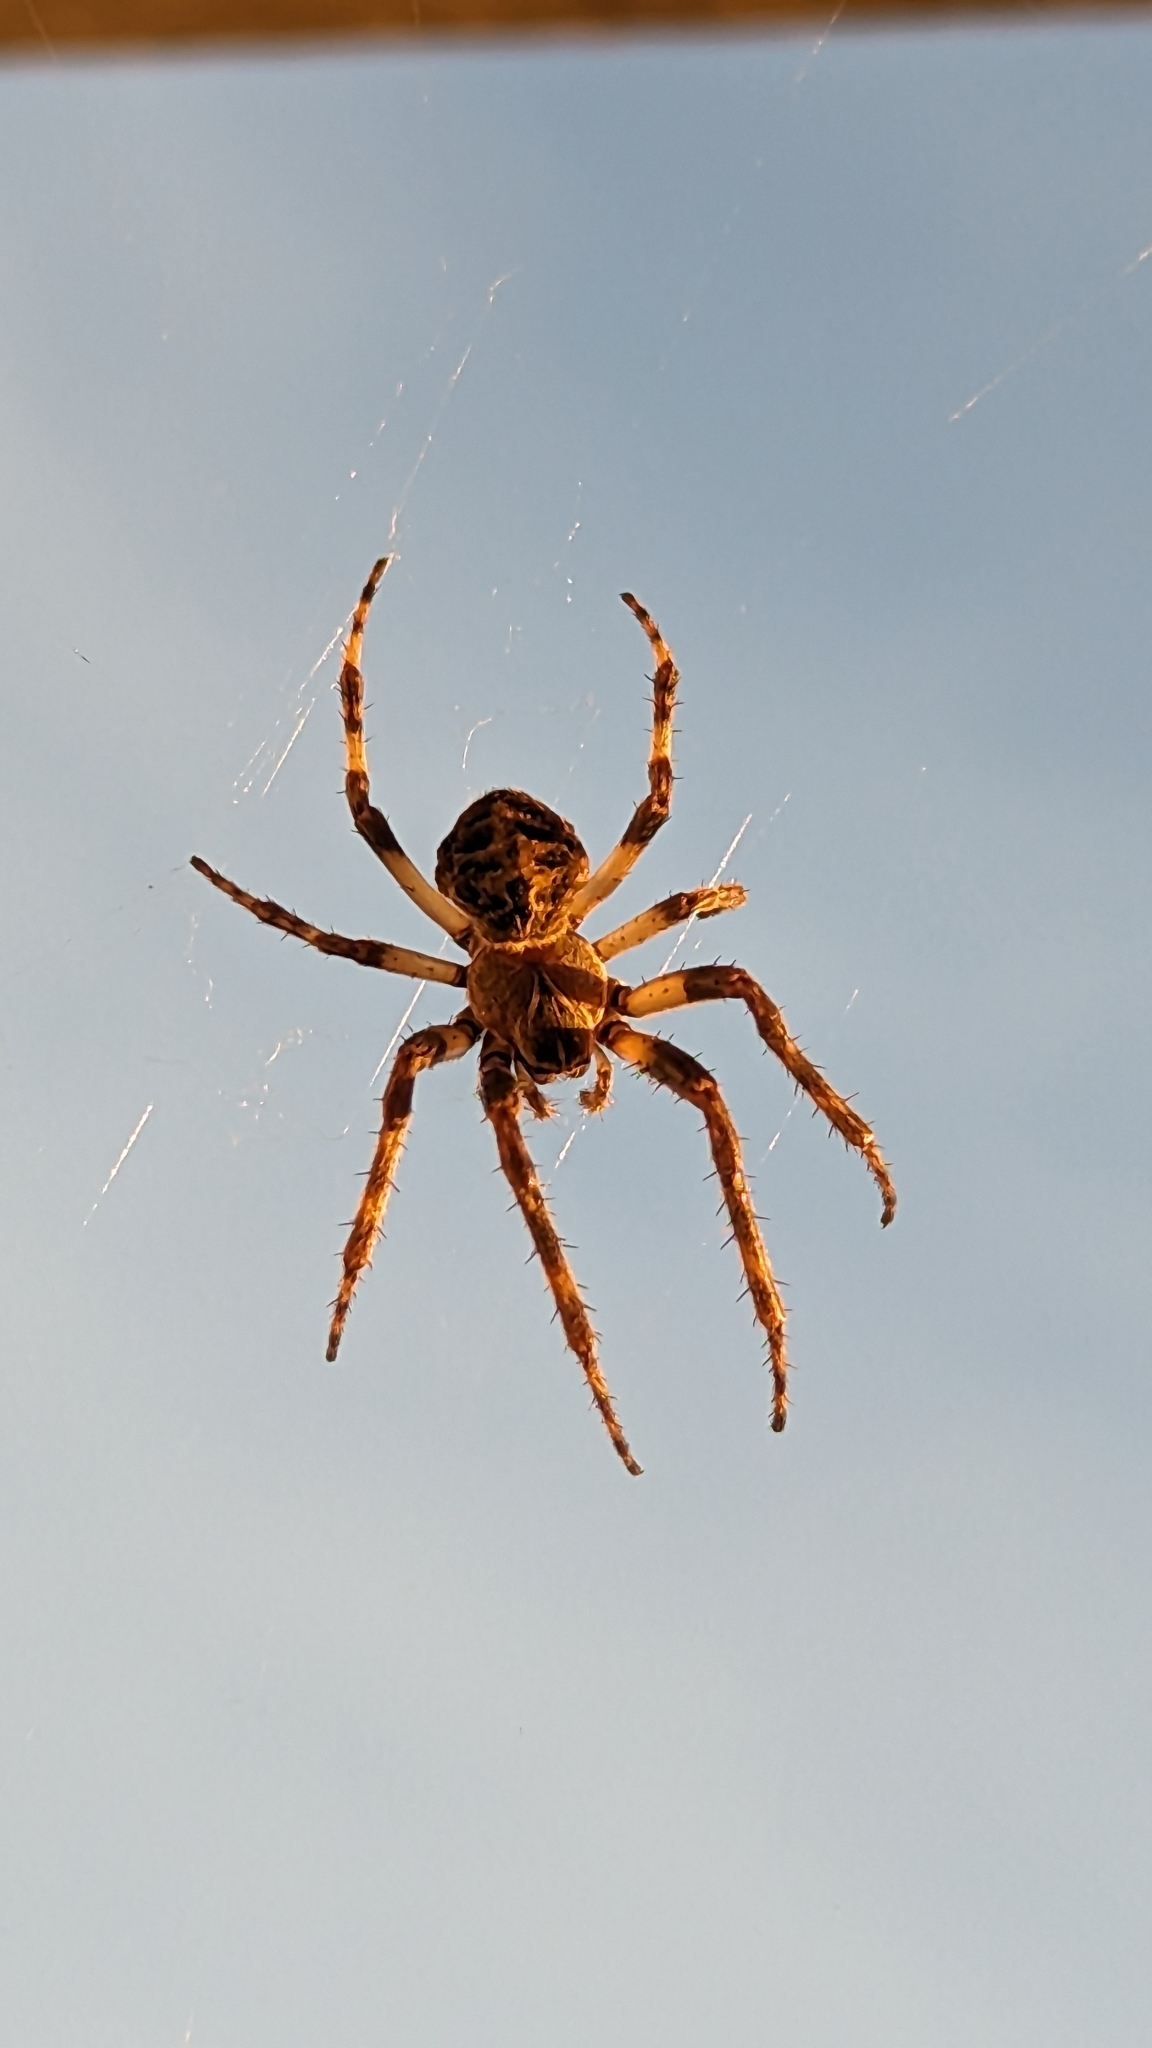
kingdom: Animalia
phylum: Arthropoda
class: Arachnida
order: Araneae
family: Araneidae
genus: Neoscona
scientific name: Neoscona crucifera
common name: Spotted orbweaver
